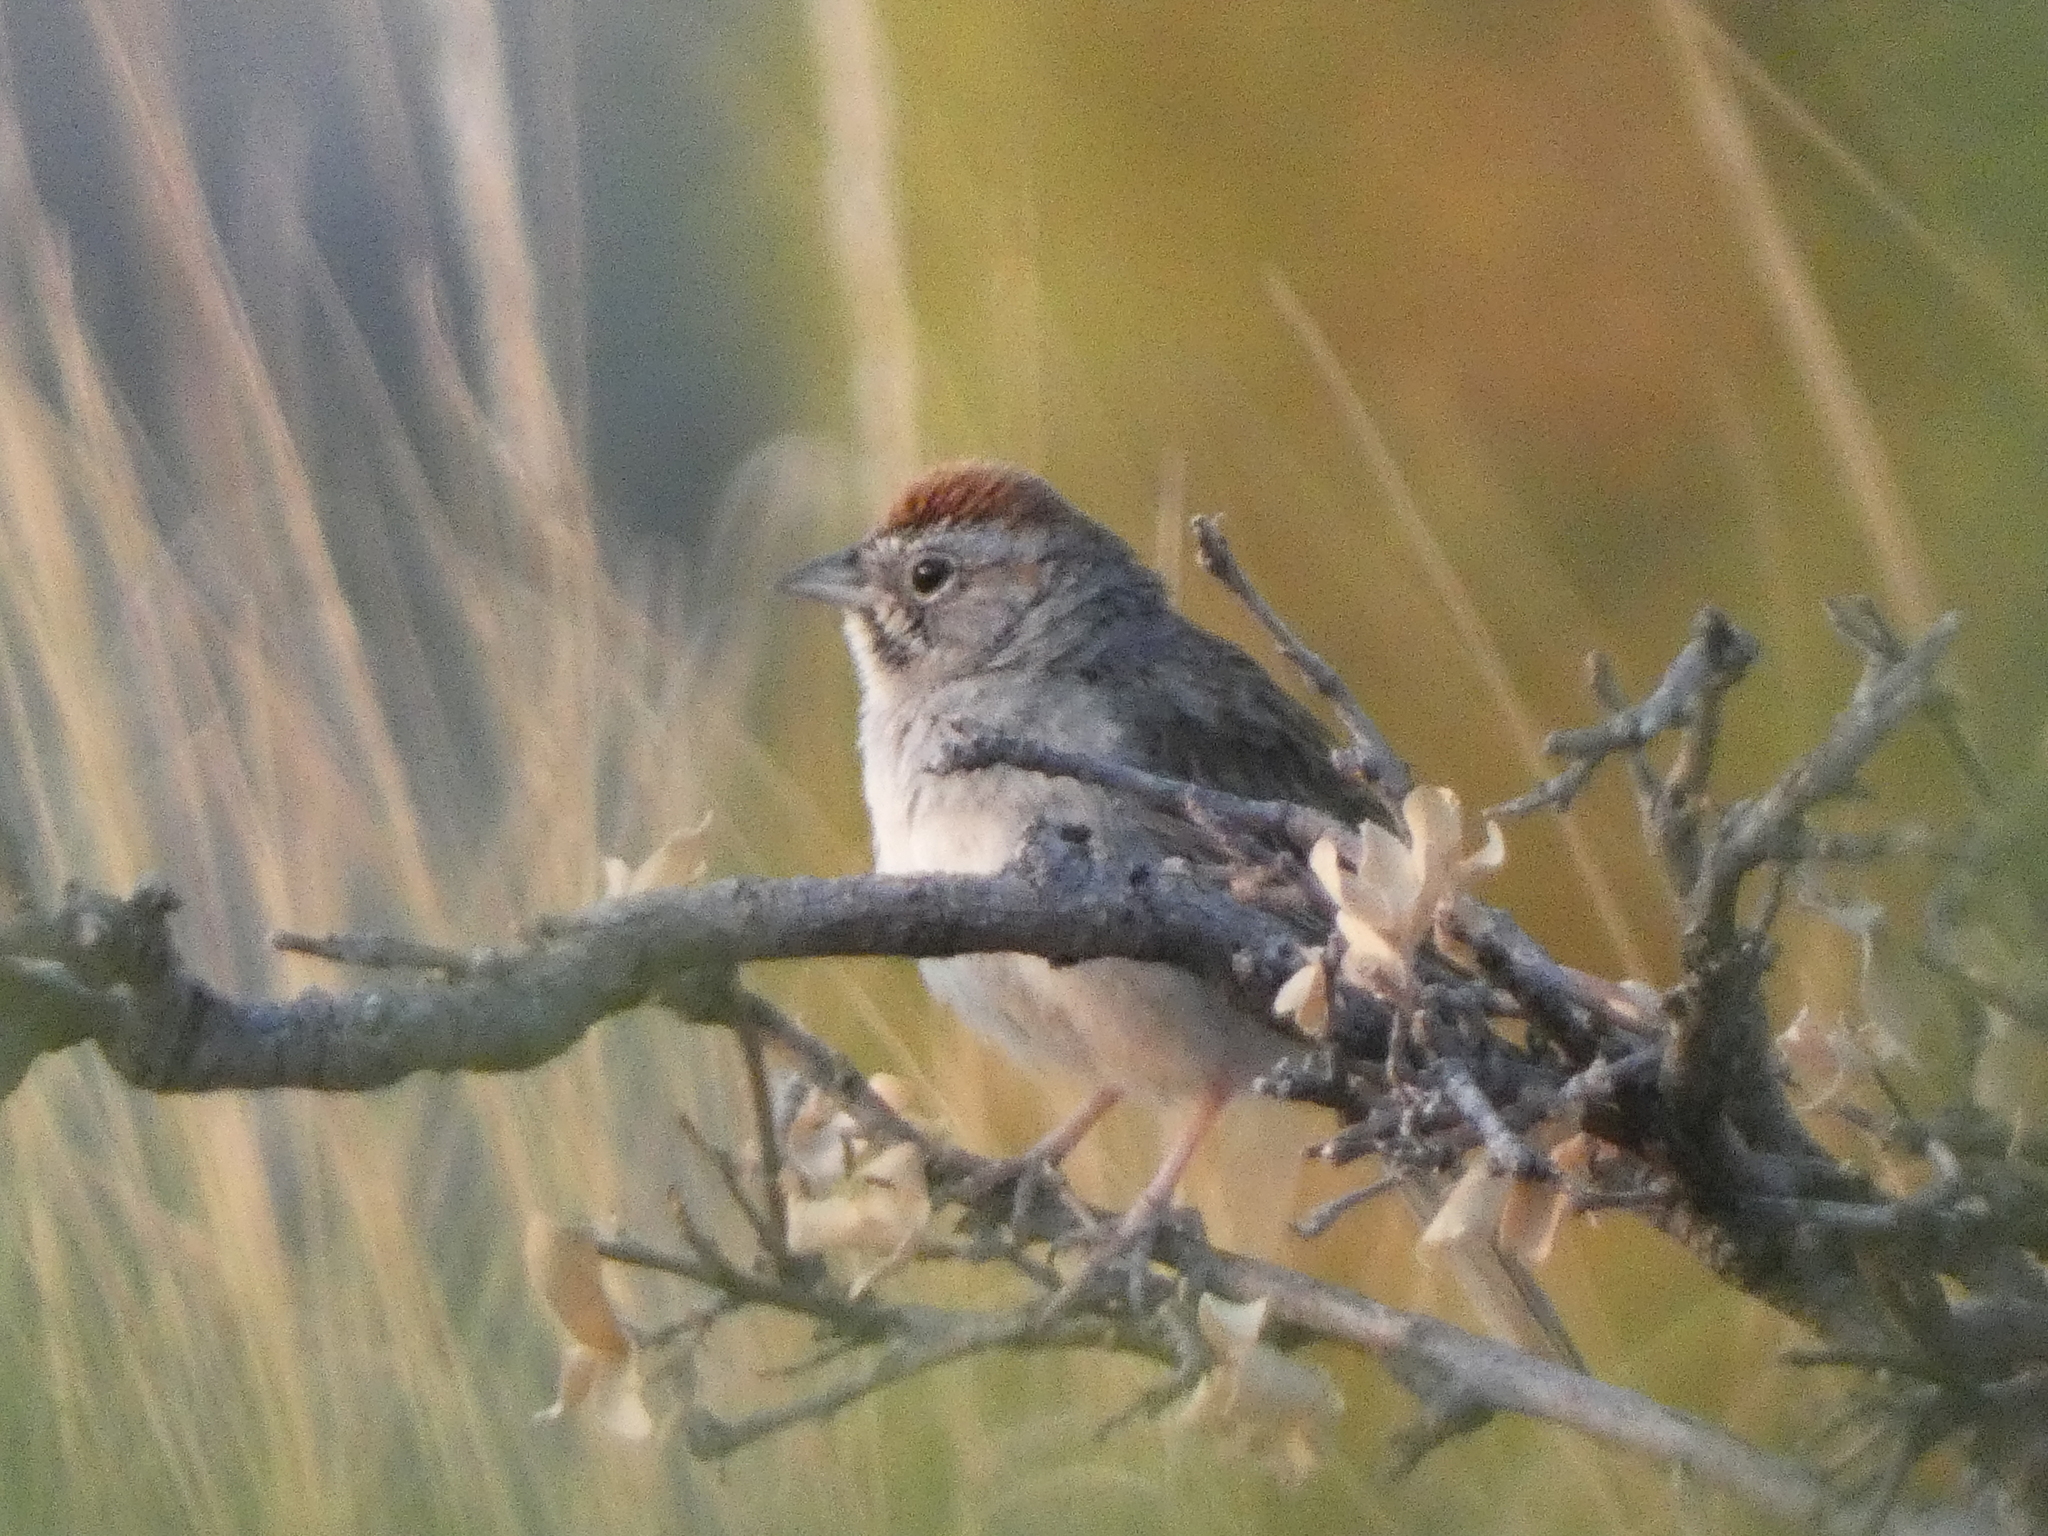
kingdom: Animalia
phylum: Chordata
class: Aves
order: Passeriformes
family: Passerellidae
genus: Aimophila
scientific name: Aimophila ruficeps
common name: Rufous-crowned sparrow
